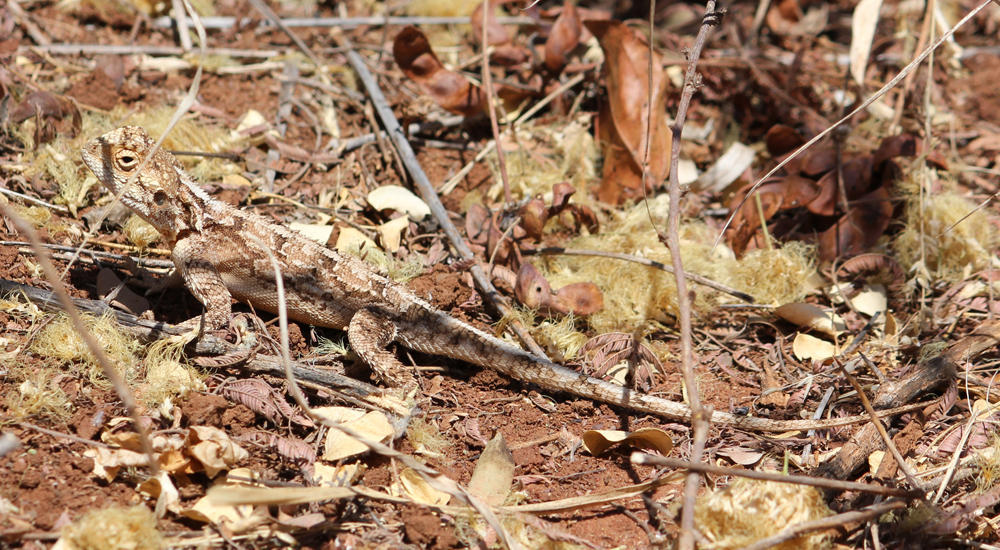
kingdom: Animalia
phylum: Chordata
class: Squamata
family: Agamidae
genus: Agama
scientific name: Agama armata
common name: Northern ground agama
